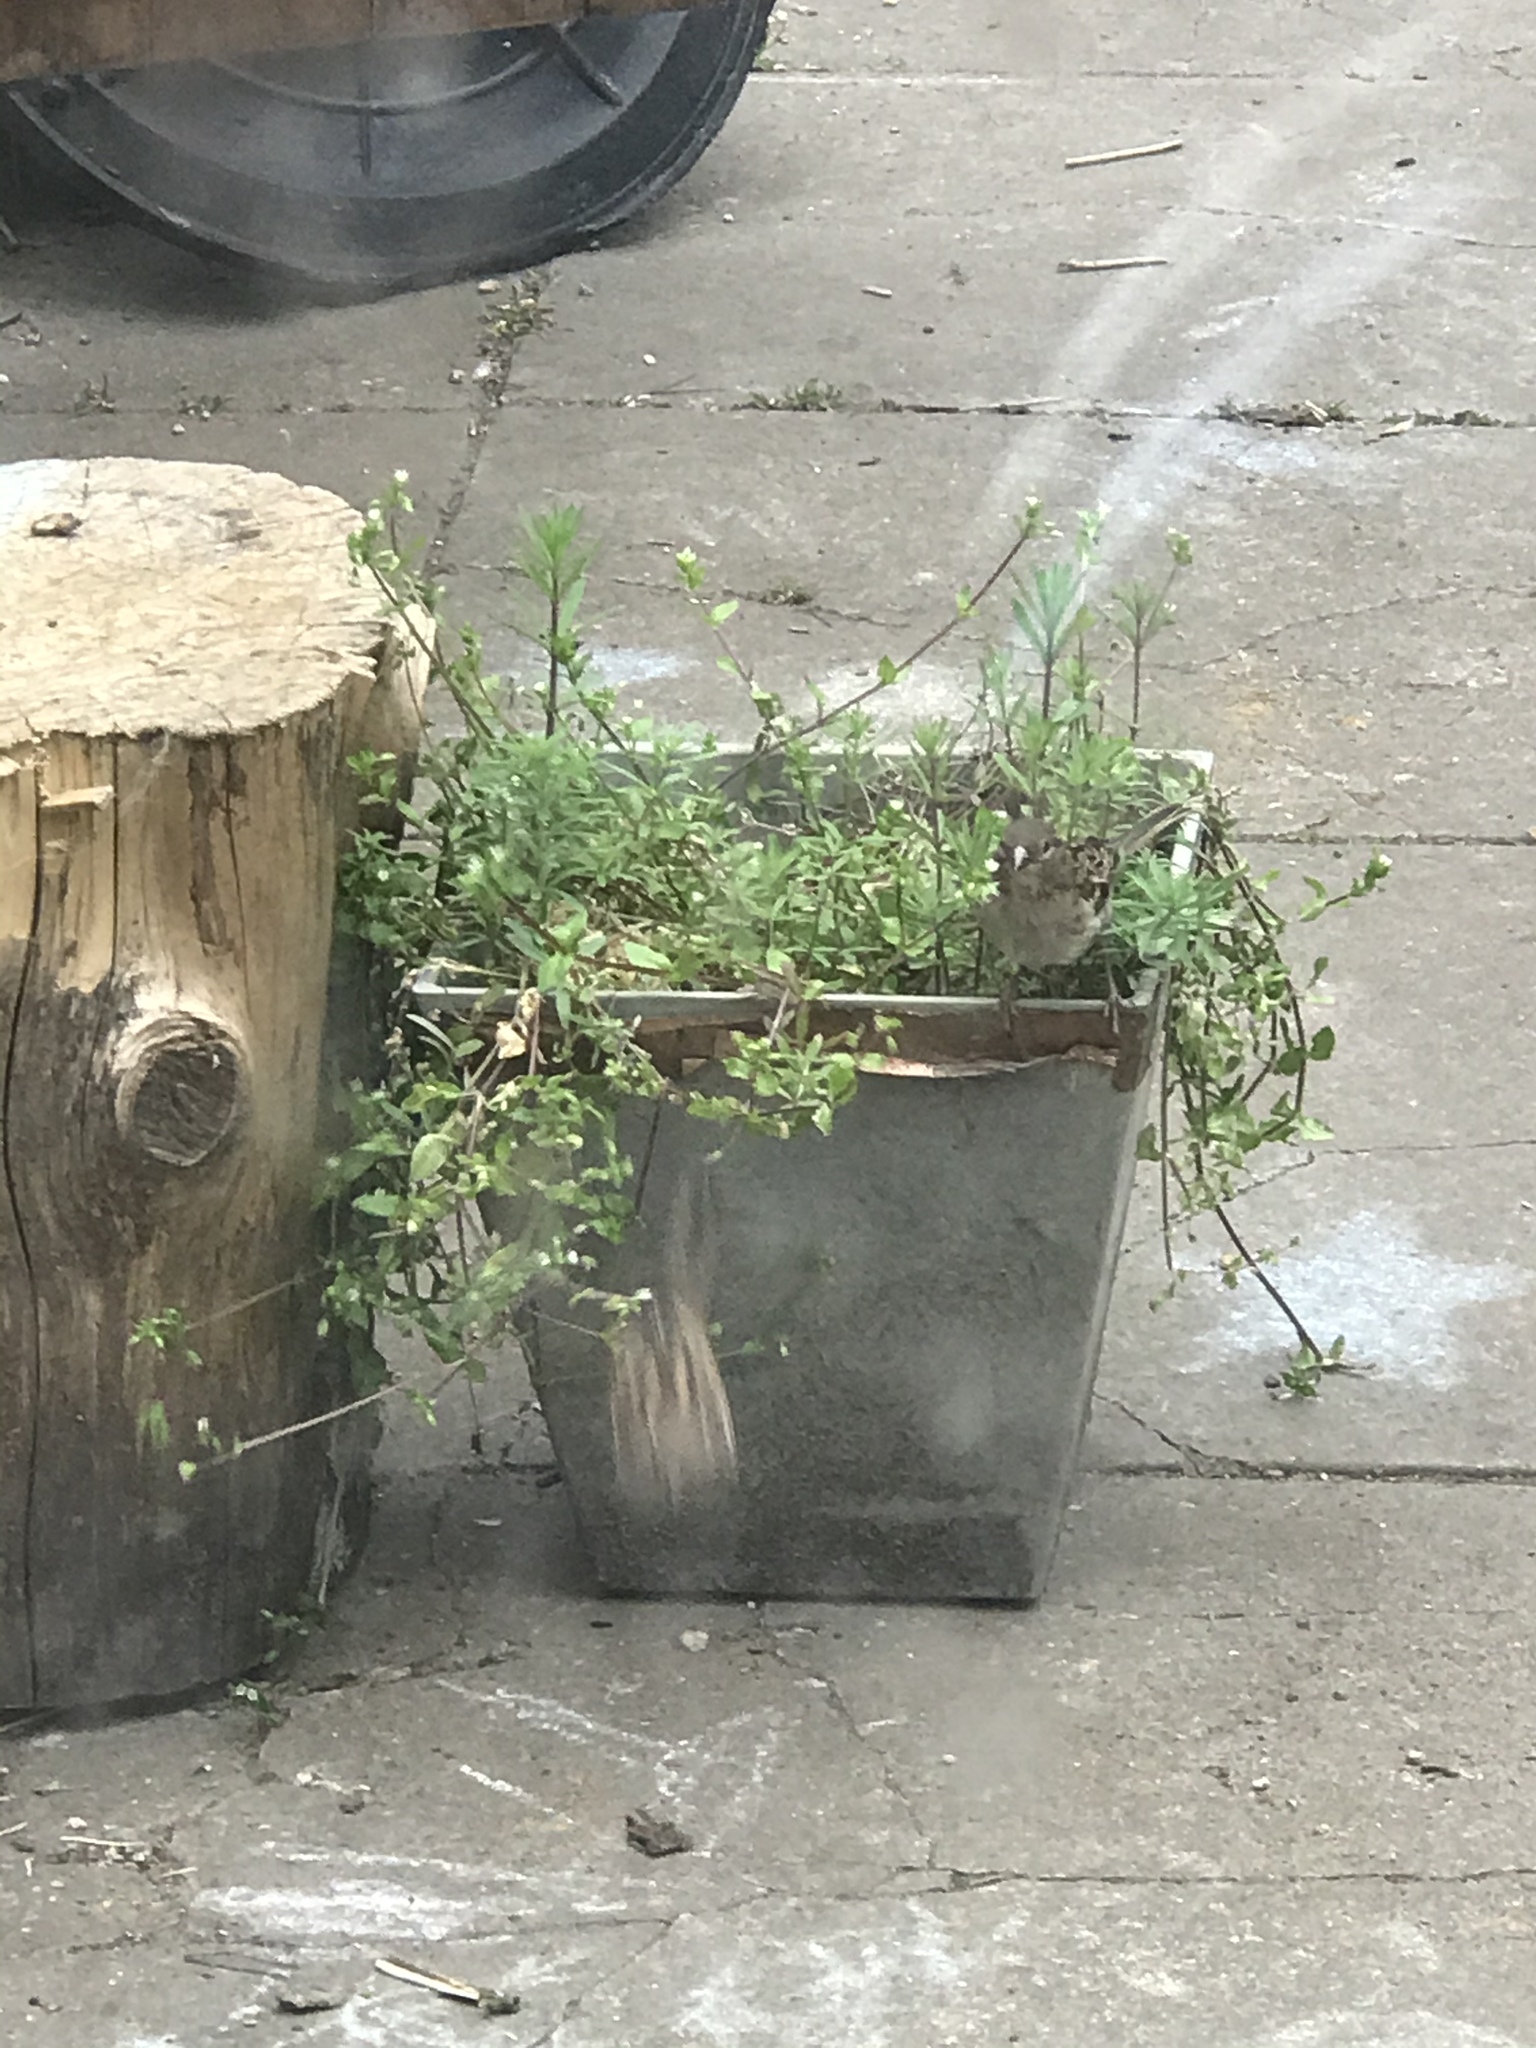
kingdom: Animalia
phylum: Chordata
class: Aves
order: Passeriformes
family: Passeridae
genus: Passer
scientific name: Passer domesticus
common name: House sparrow
